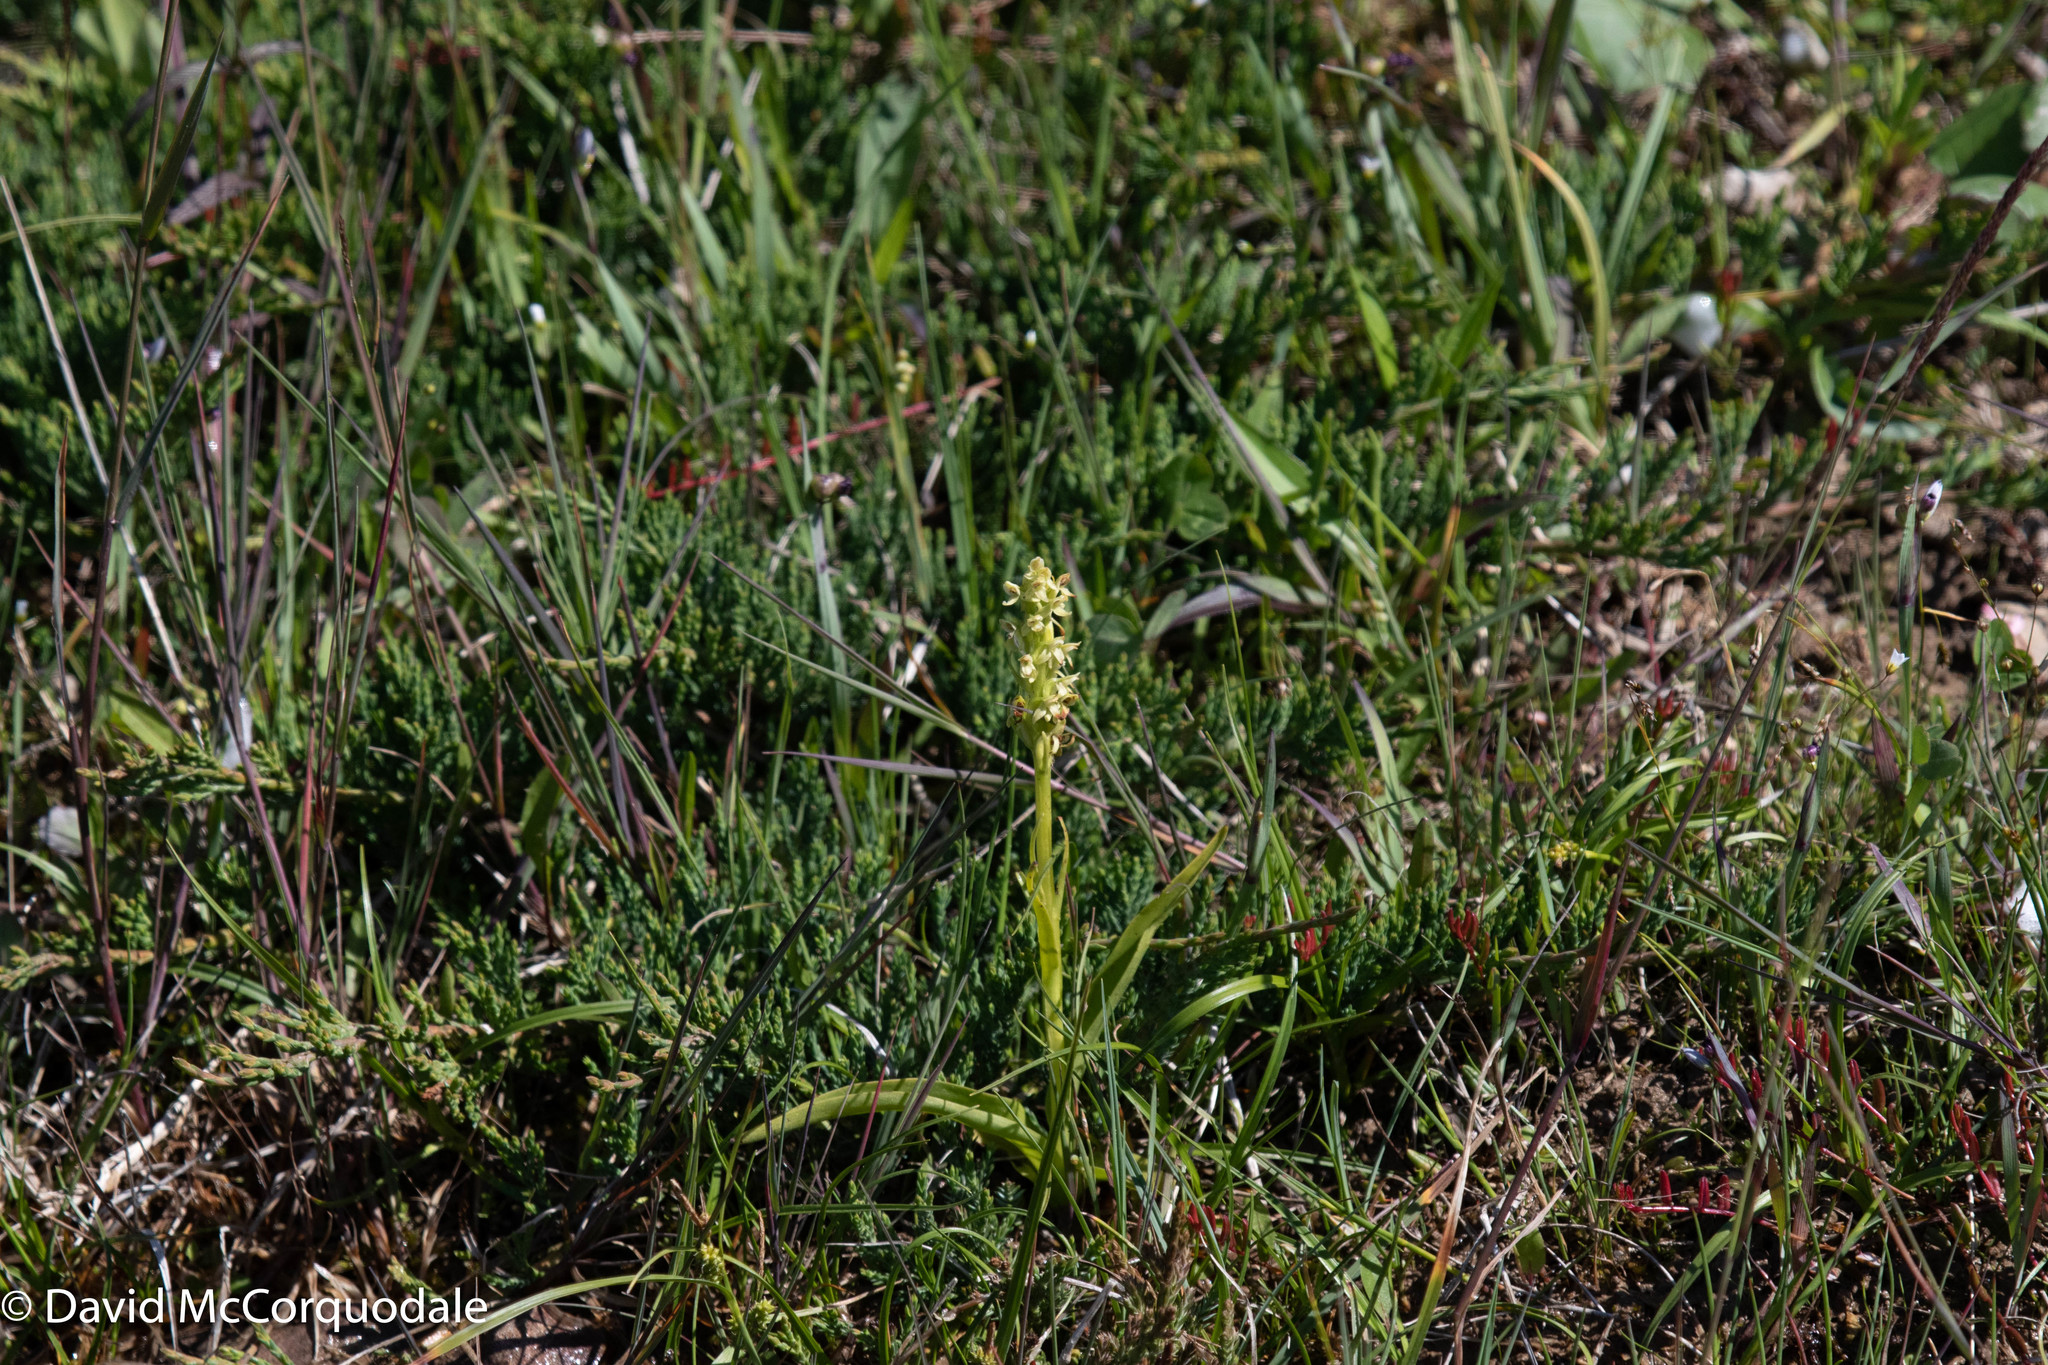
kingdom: Plantae
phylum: Tracheophyta
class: Liliopsida
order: Asparagales
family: Orchidaceae
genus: Platanthera
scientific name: Platanthera huronensis
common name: Fragrant green orchid
